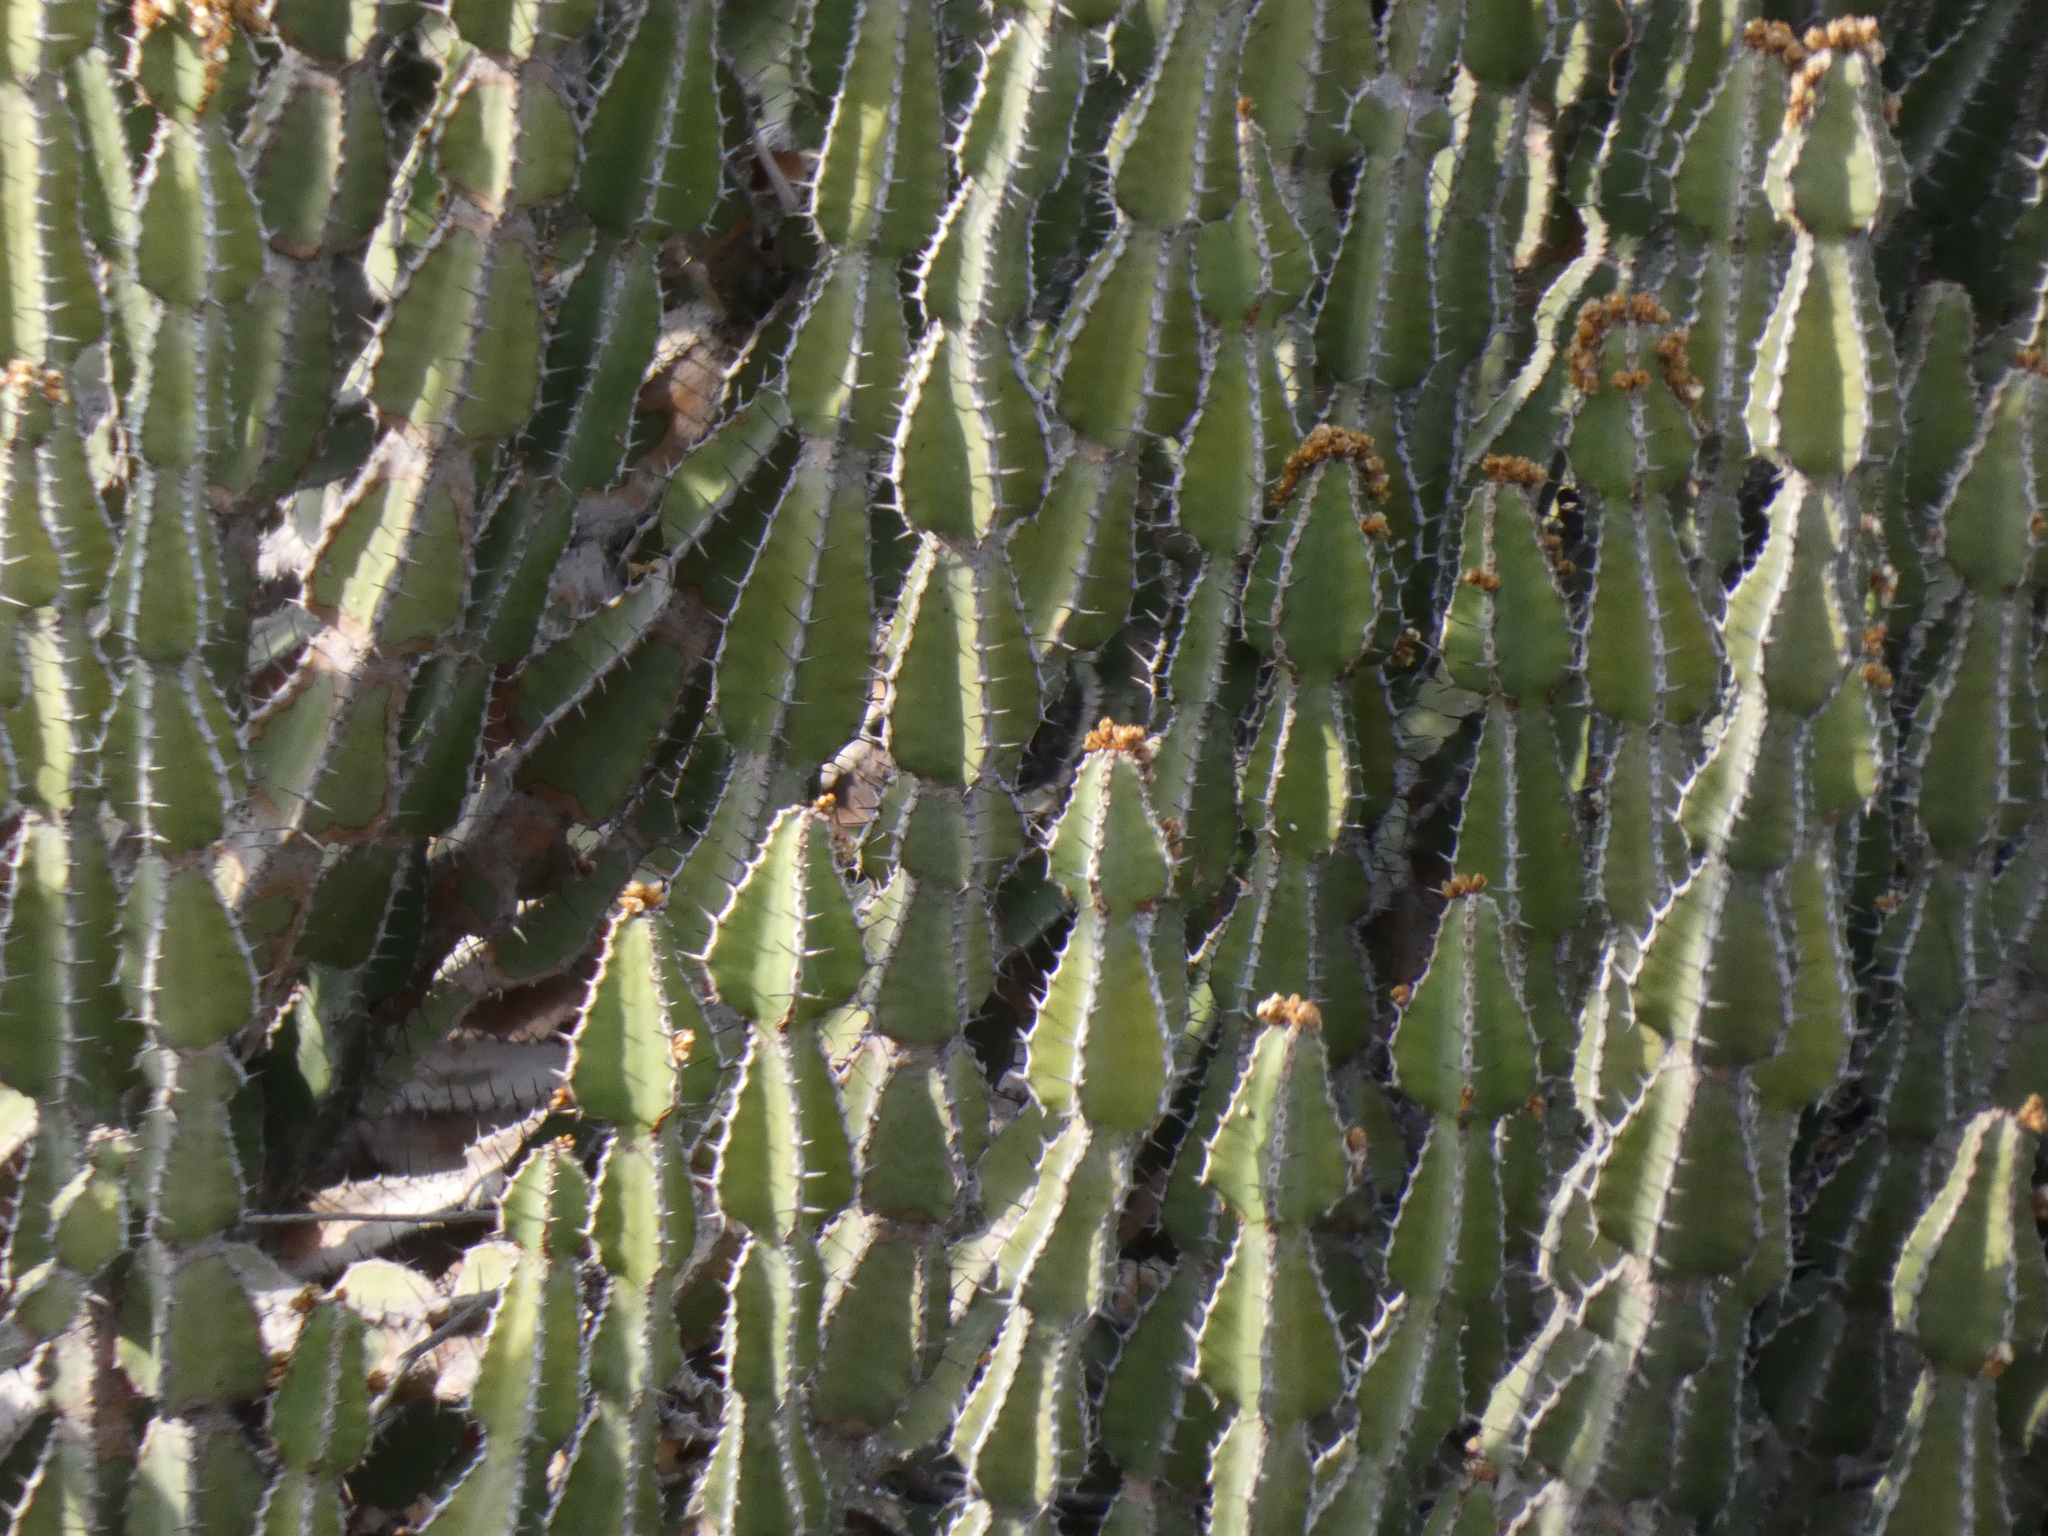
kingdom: Plantae
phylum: Tracheophyta
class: Magnoliopsida
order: Malpighiales
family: Euphorbiaceae
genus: Euphorbia
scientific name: Euphorbia cooperi
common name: Candelabra tree
